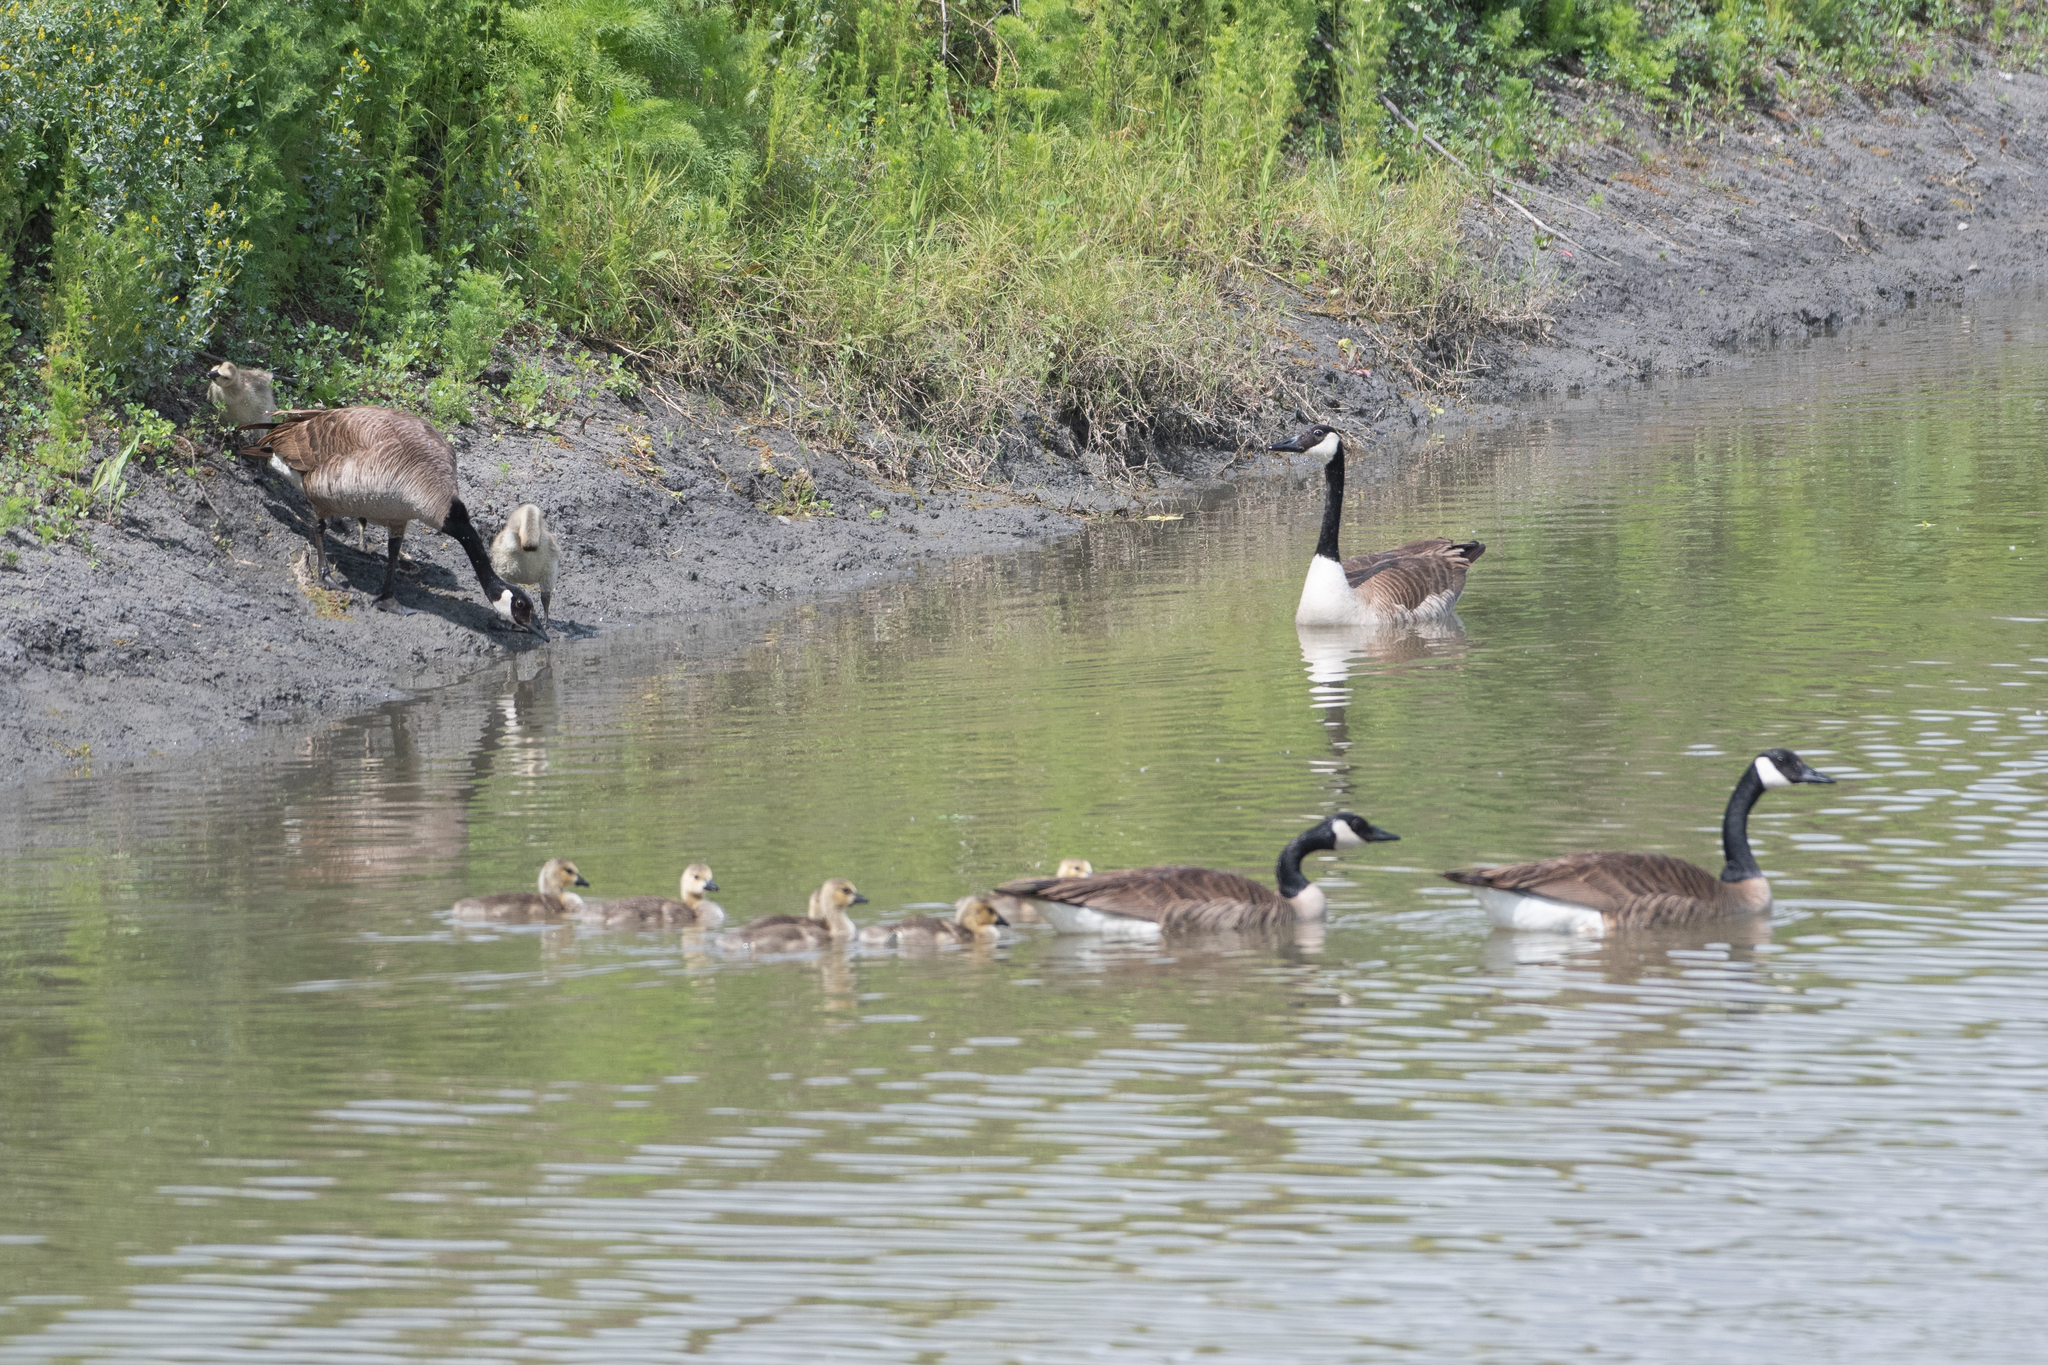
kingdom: Animalia
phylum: Chordata
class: Aves
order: Anseriformes
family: Anatidae
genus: Branta
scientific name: Branta canadensis
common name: Canada goose
